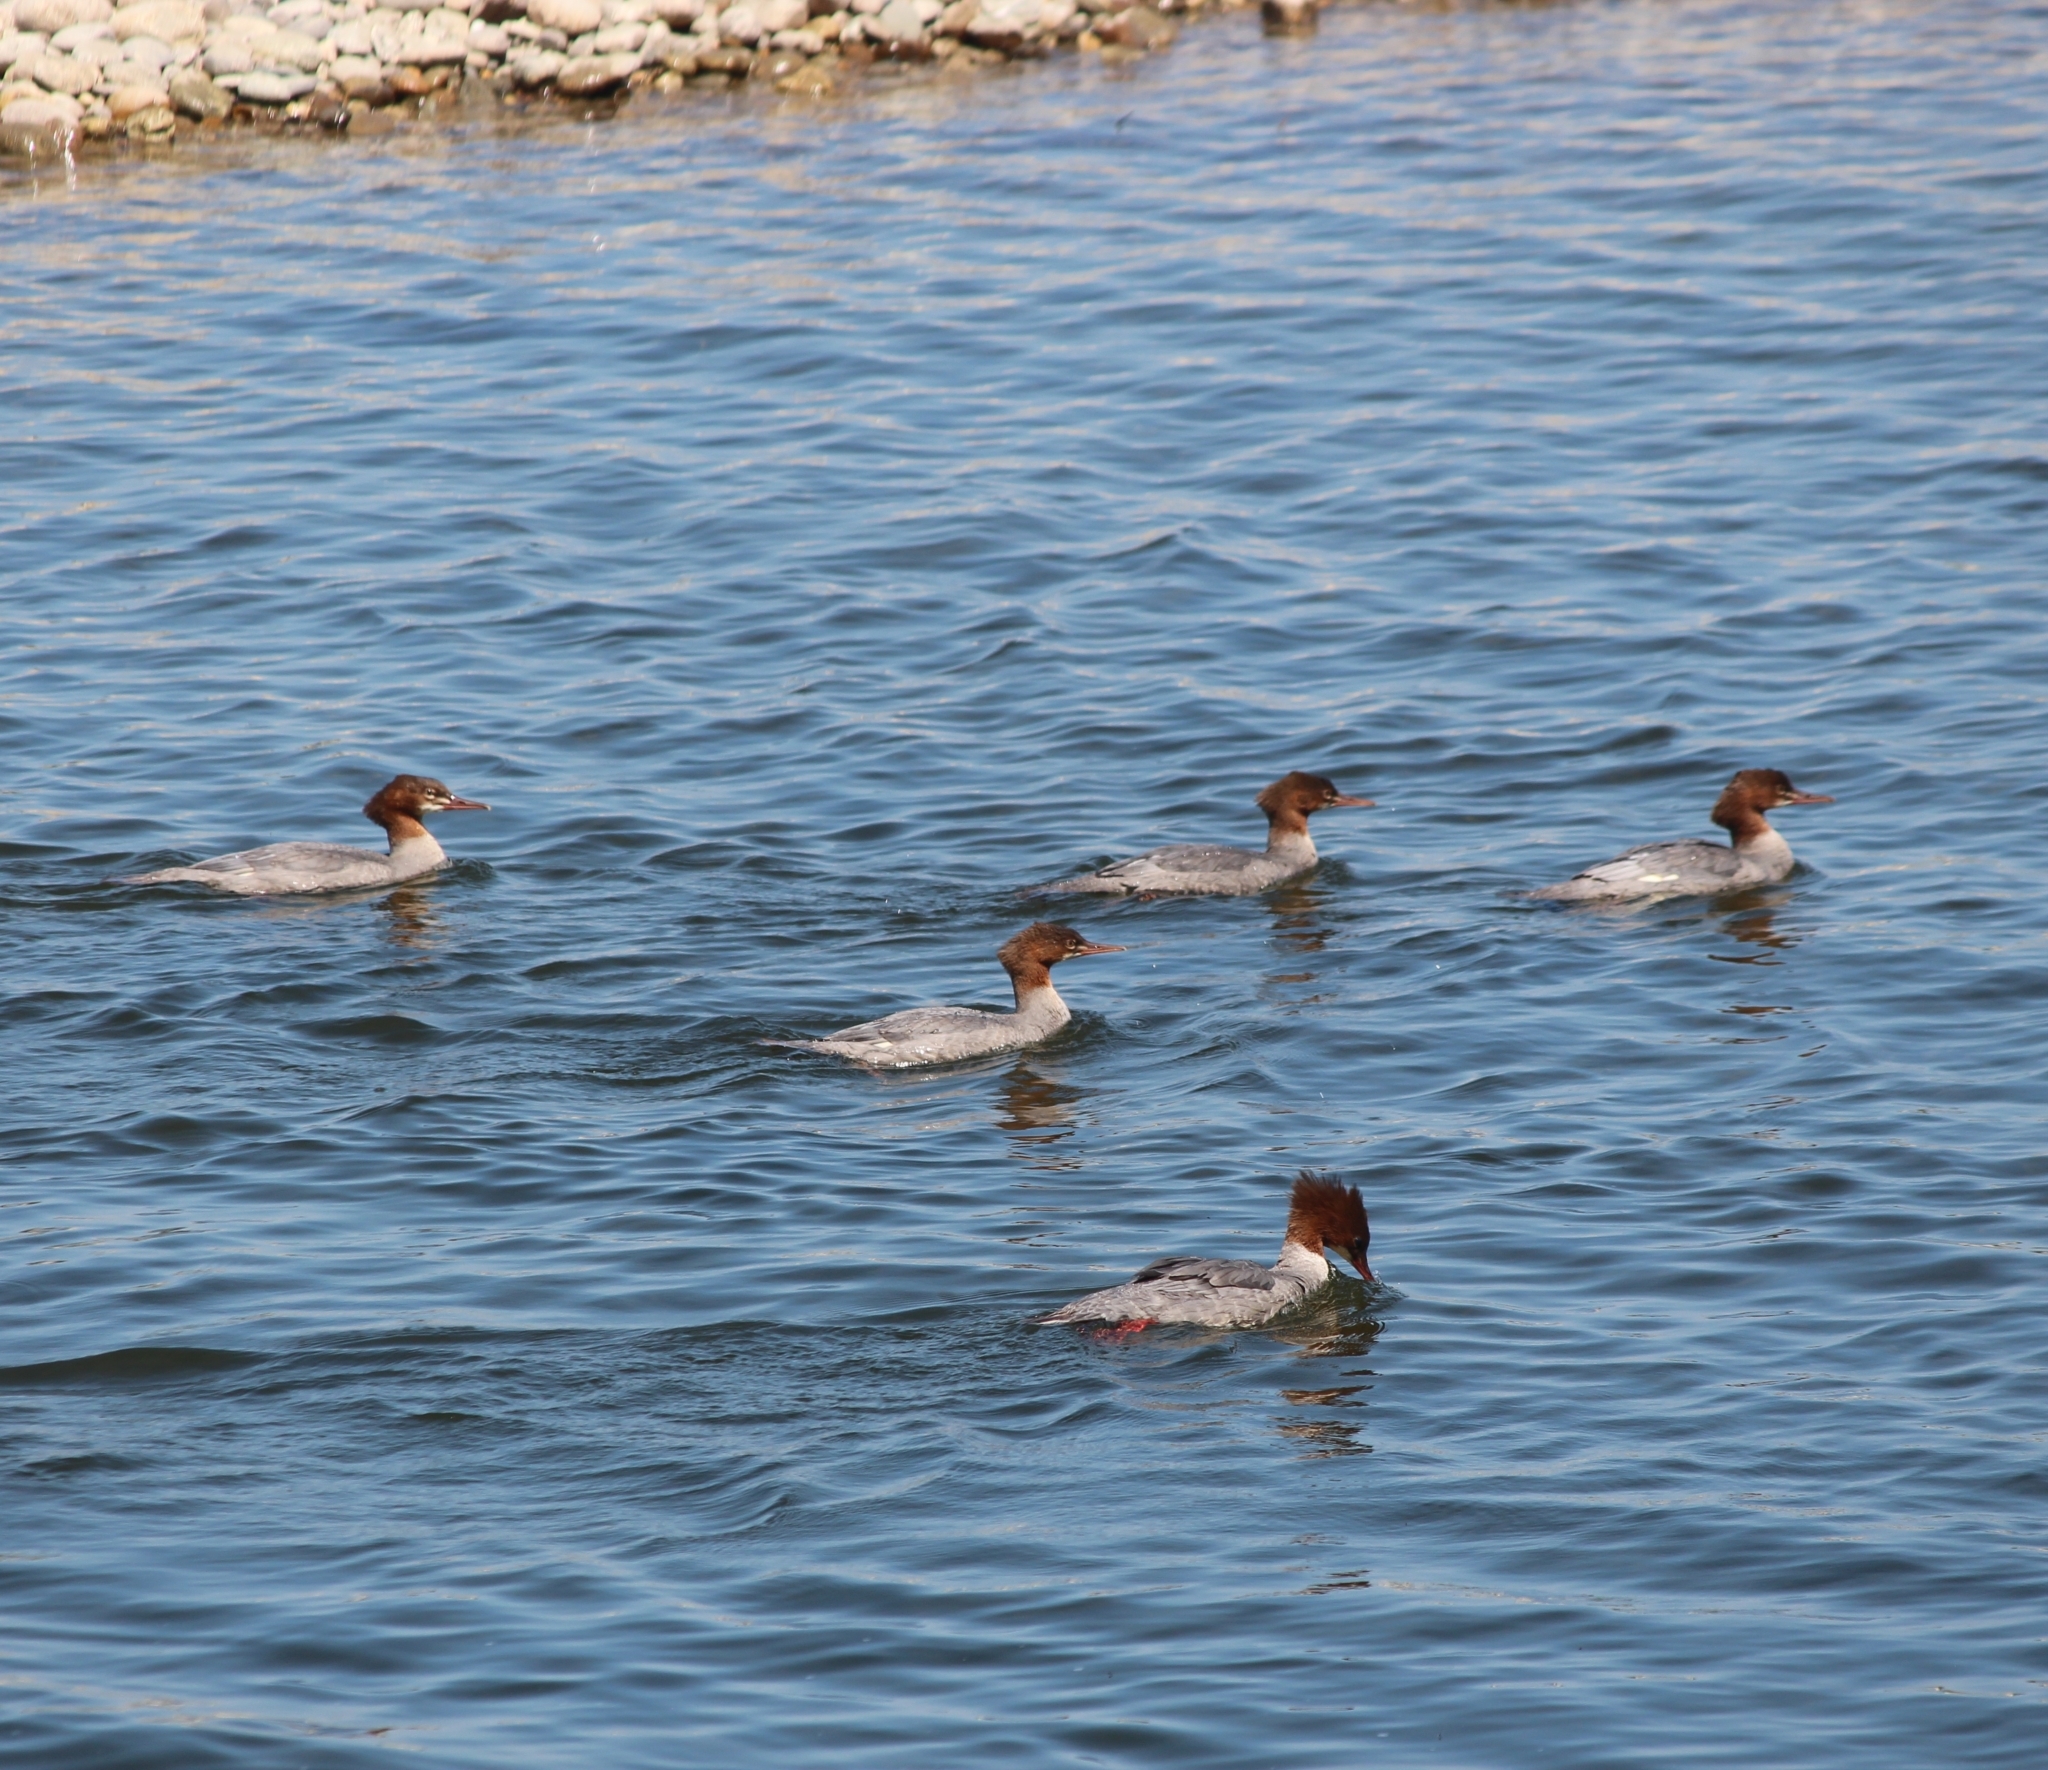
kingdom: Animalia
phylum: Chordata
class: Aves
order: Anseriformes
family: Anatidae
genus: Mergus
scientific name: Mergus merganser
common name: Common merganser
